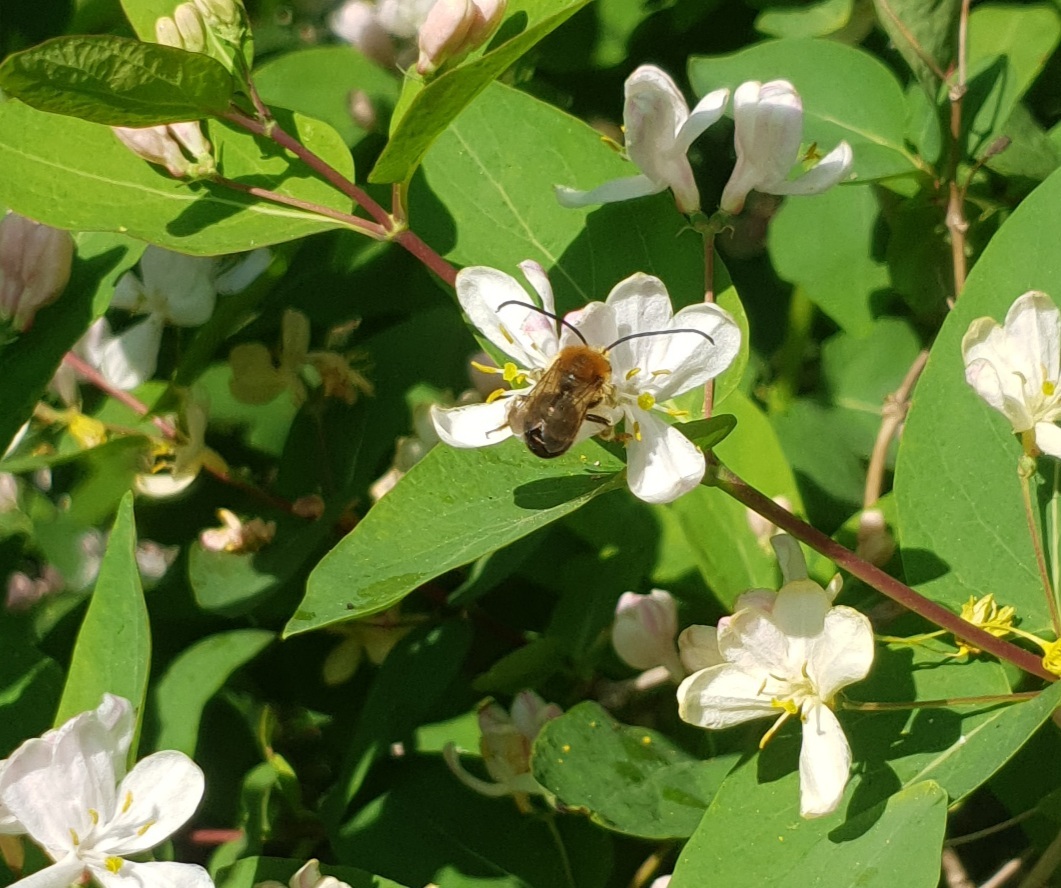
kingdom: Animalia
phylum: Arthropoda
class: Insecta
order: Hymenoptera
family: Apidae
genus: Eucera
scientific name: Eucera
